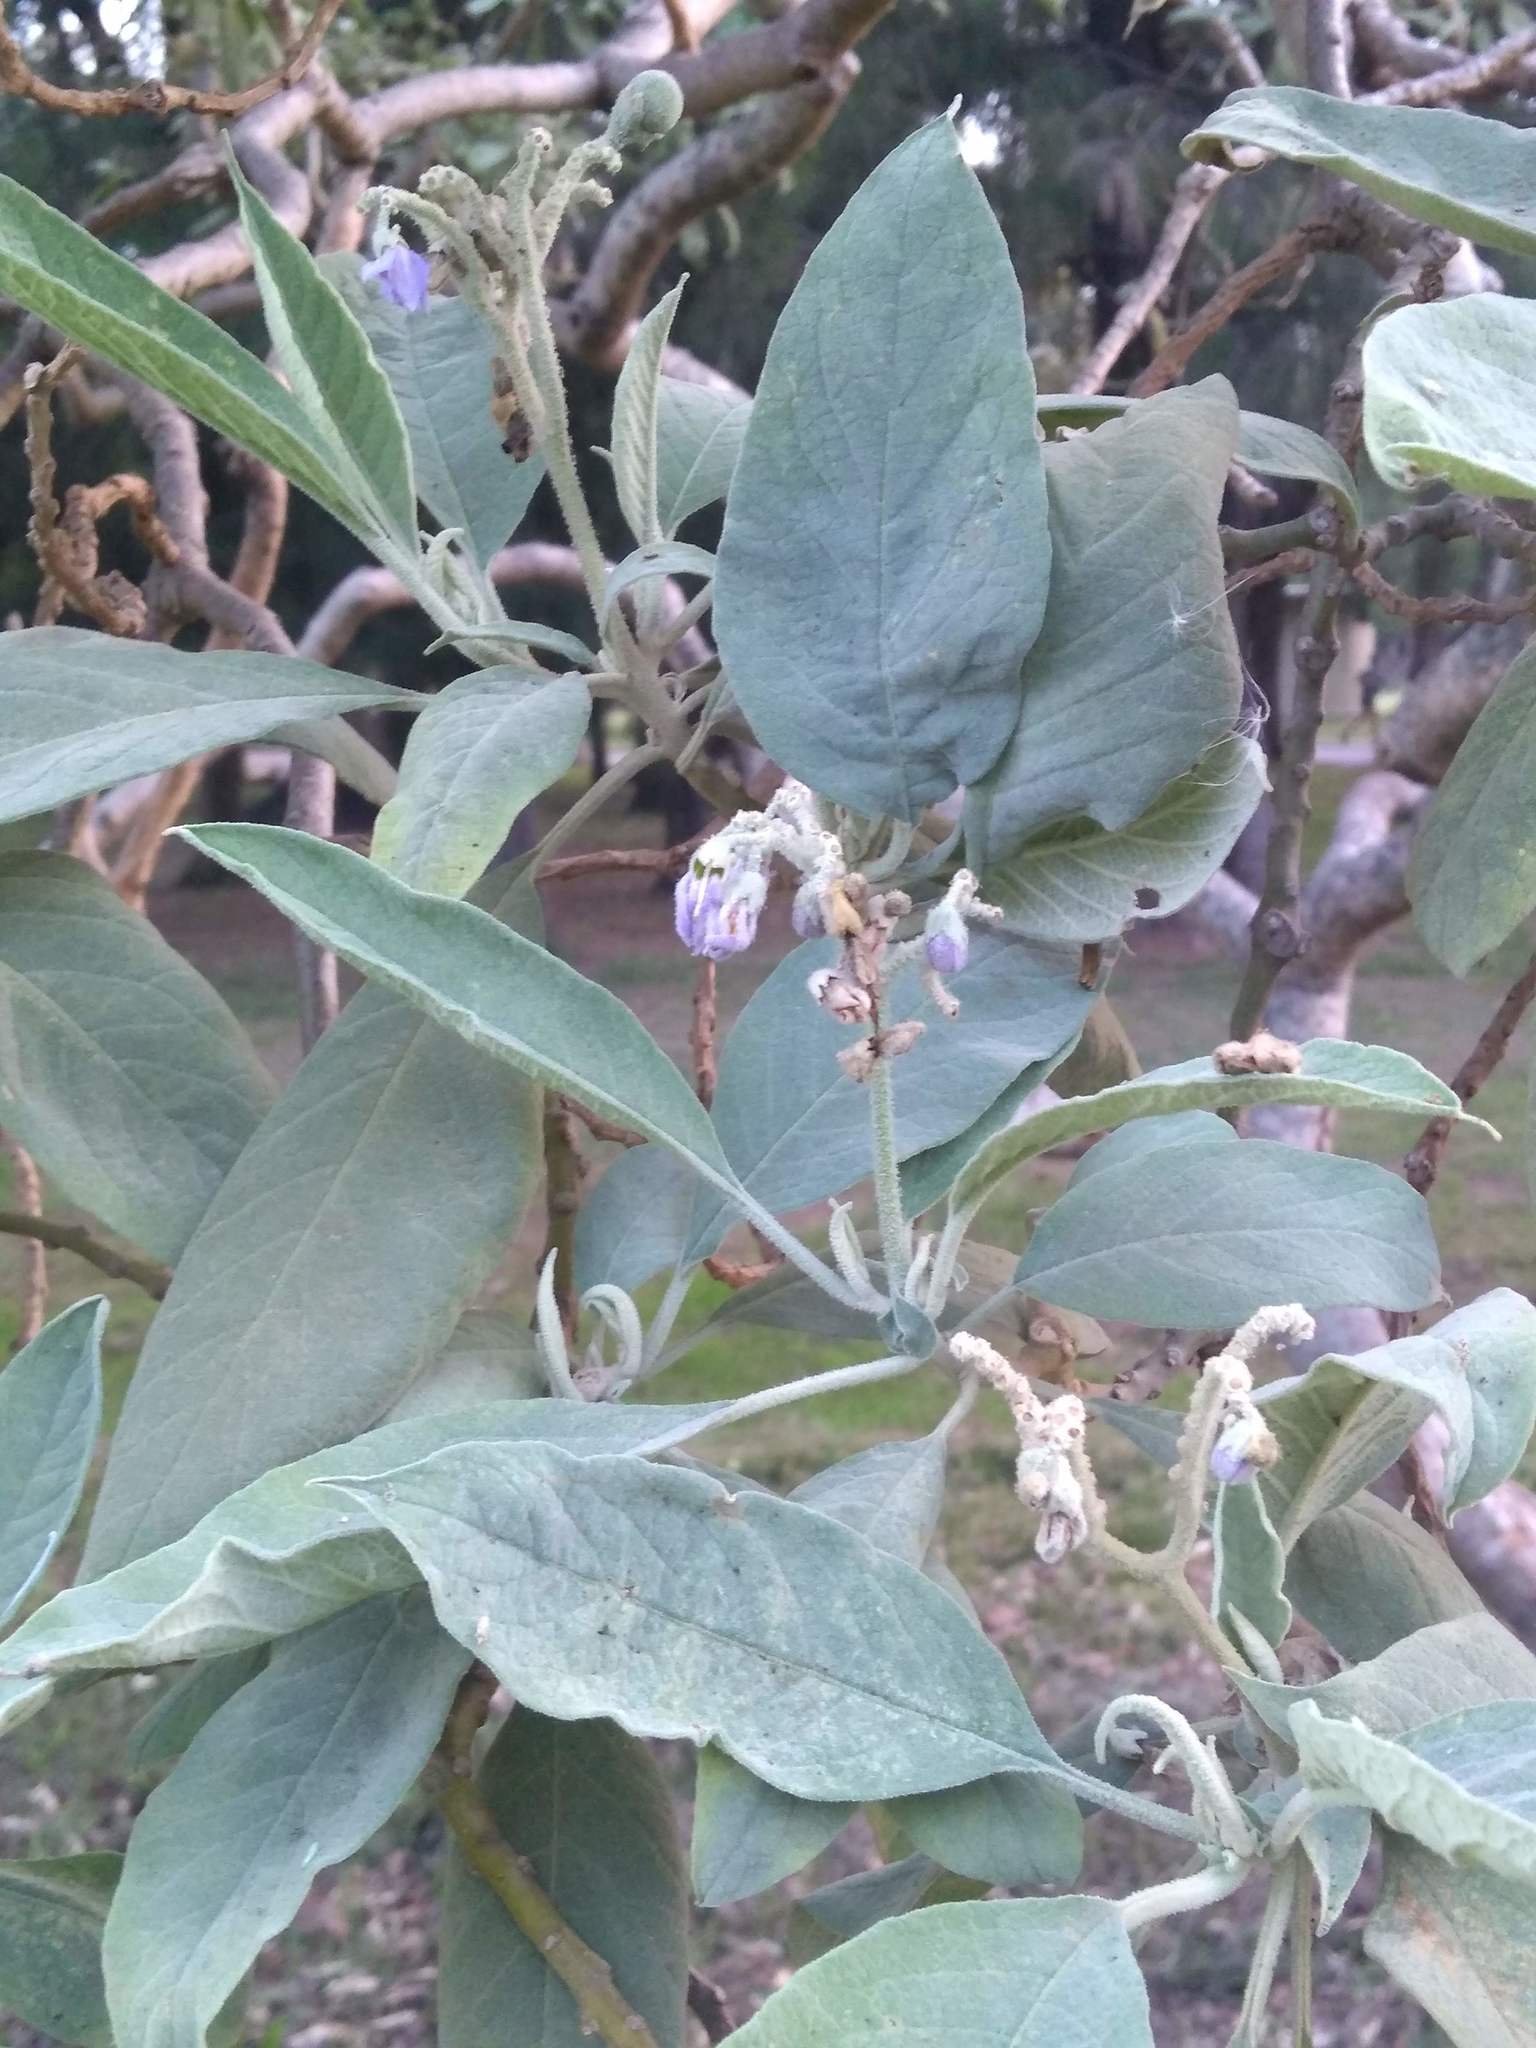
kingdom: Plantae
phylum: Tracheophyta
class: Magnoliopsida
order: Solanales
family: Solanaceae
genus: Solanum
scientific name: Solanum granulosoleprosum
